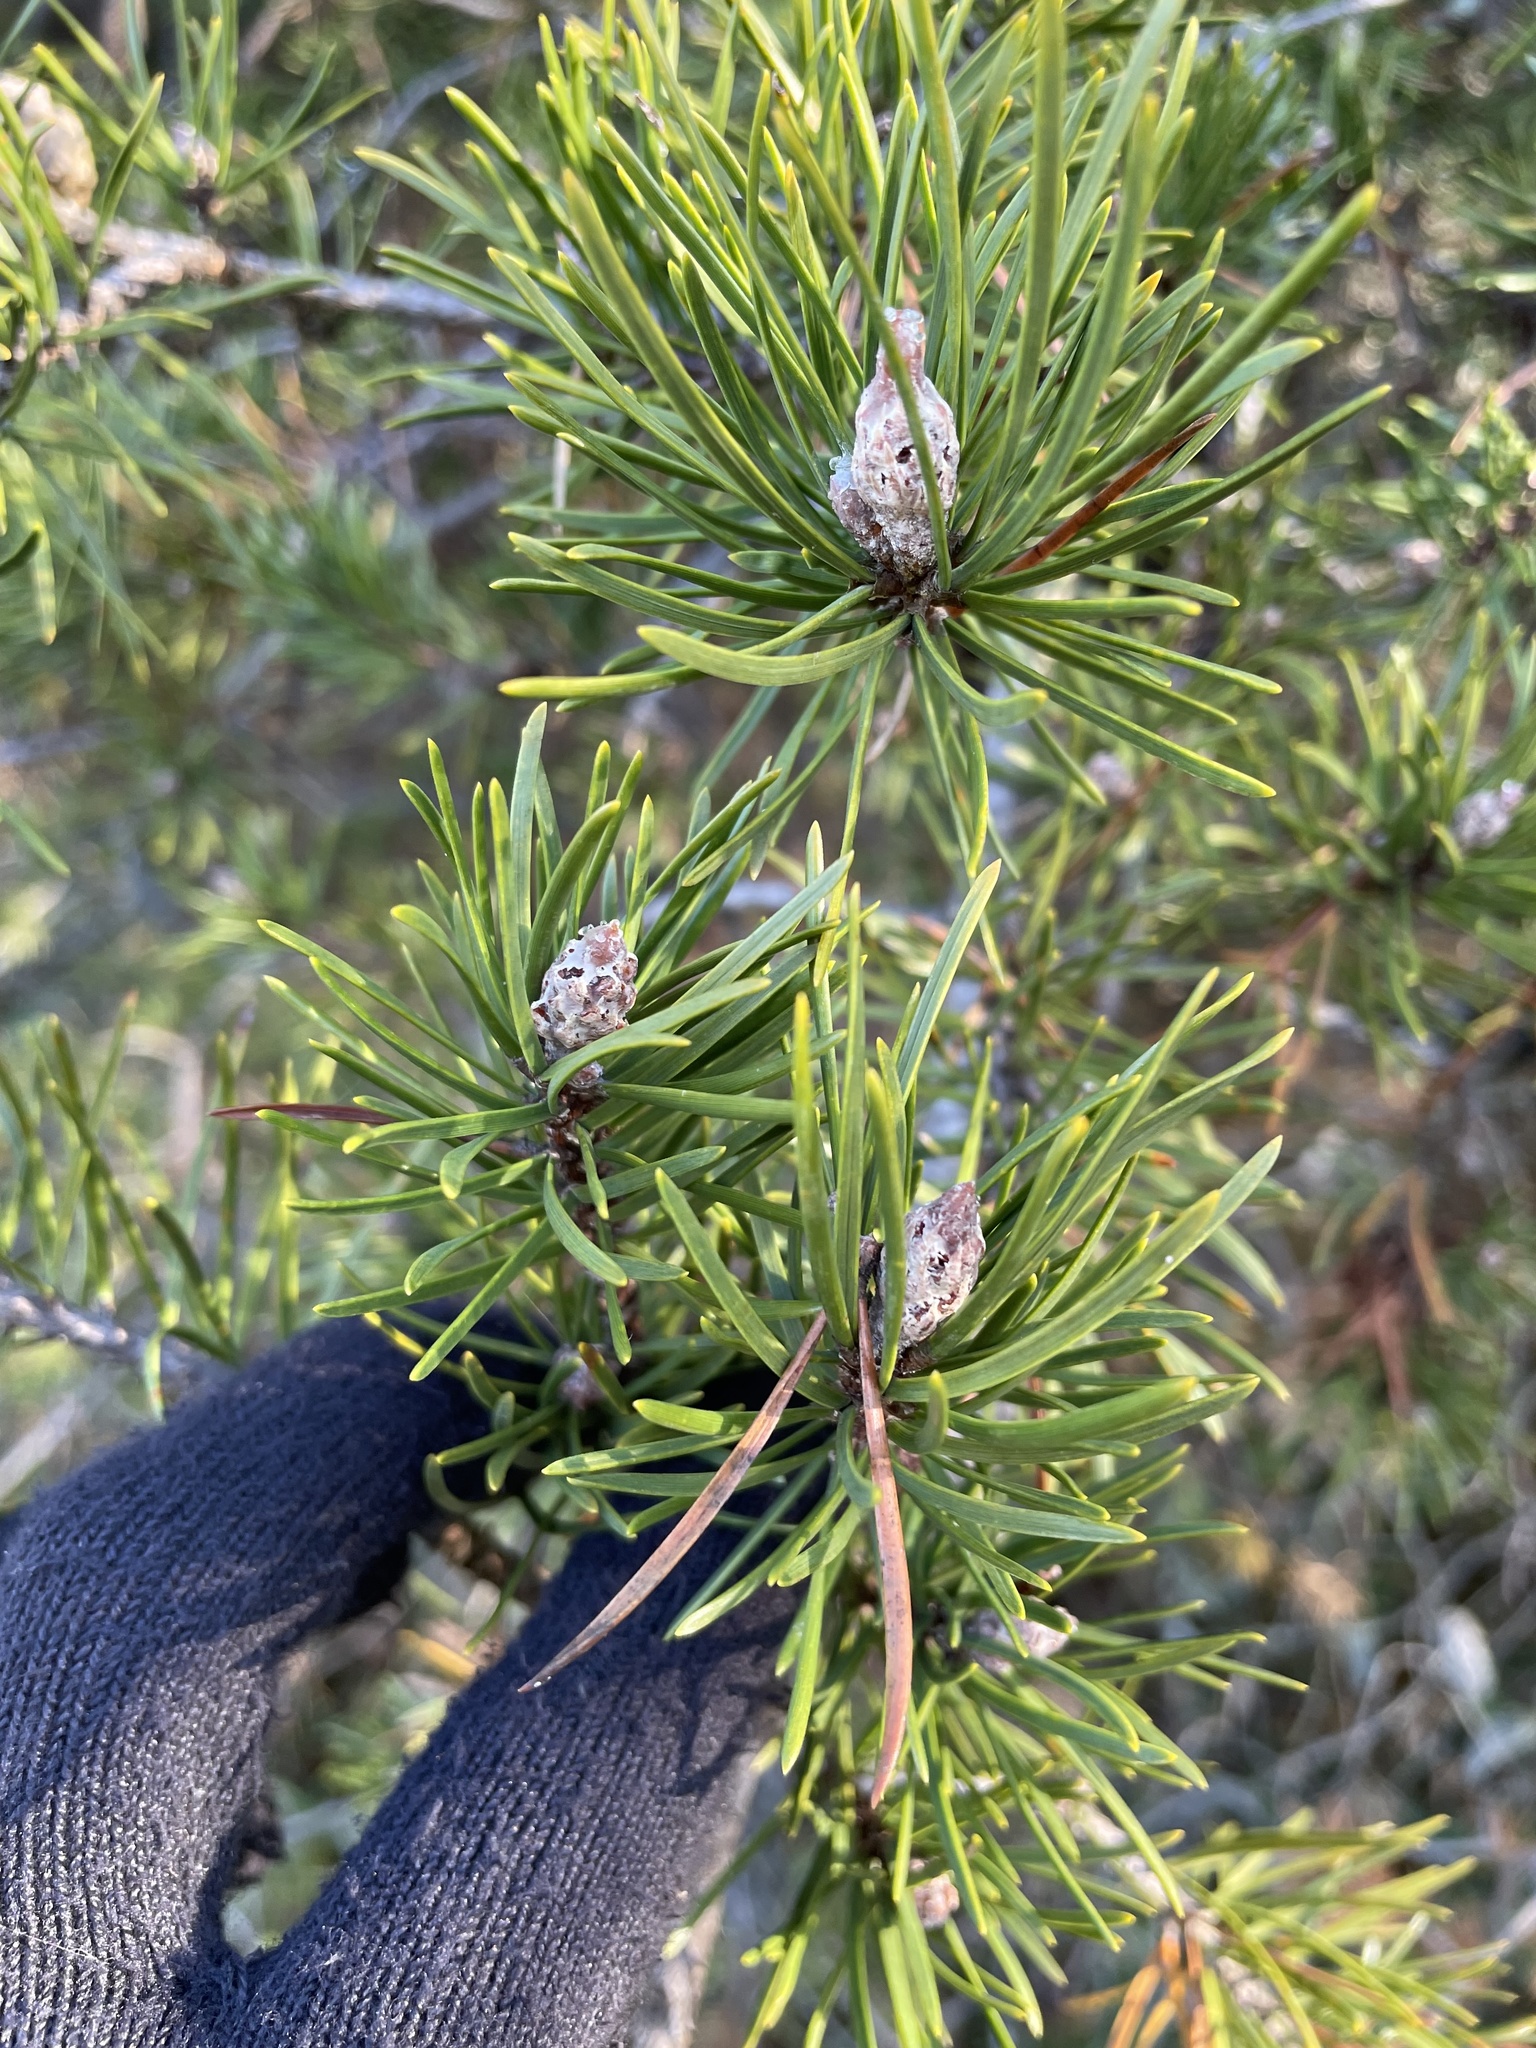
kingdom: Plantae
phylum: Tracheophyta
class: Pinopsida
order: Pinales
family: Pinaceae
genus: Pinus
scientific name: Pinus banksiana
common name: Jack pine
